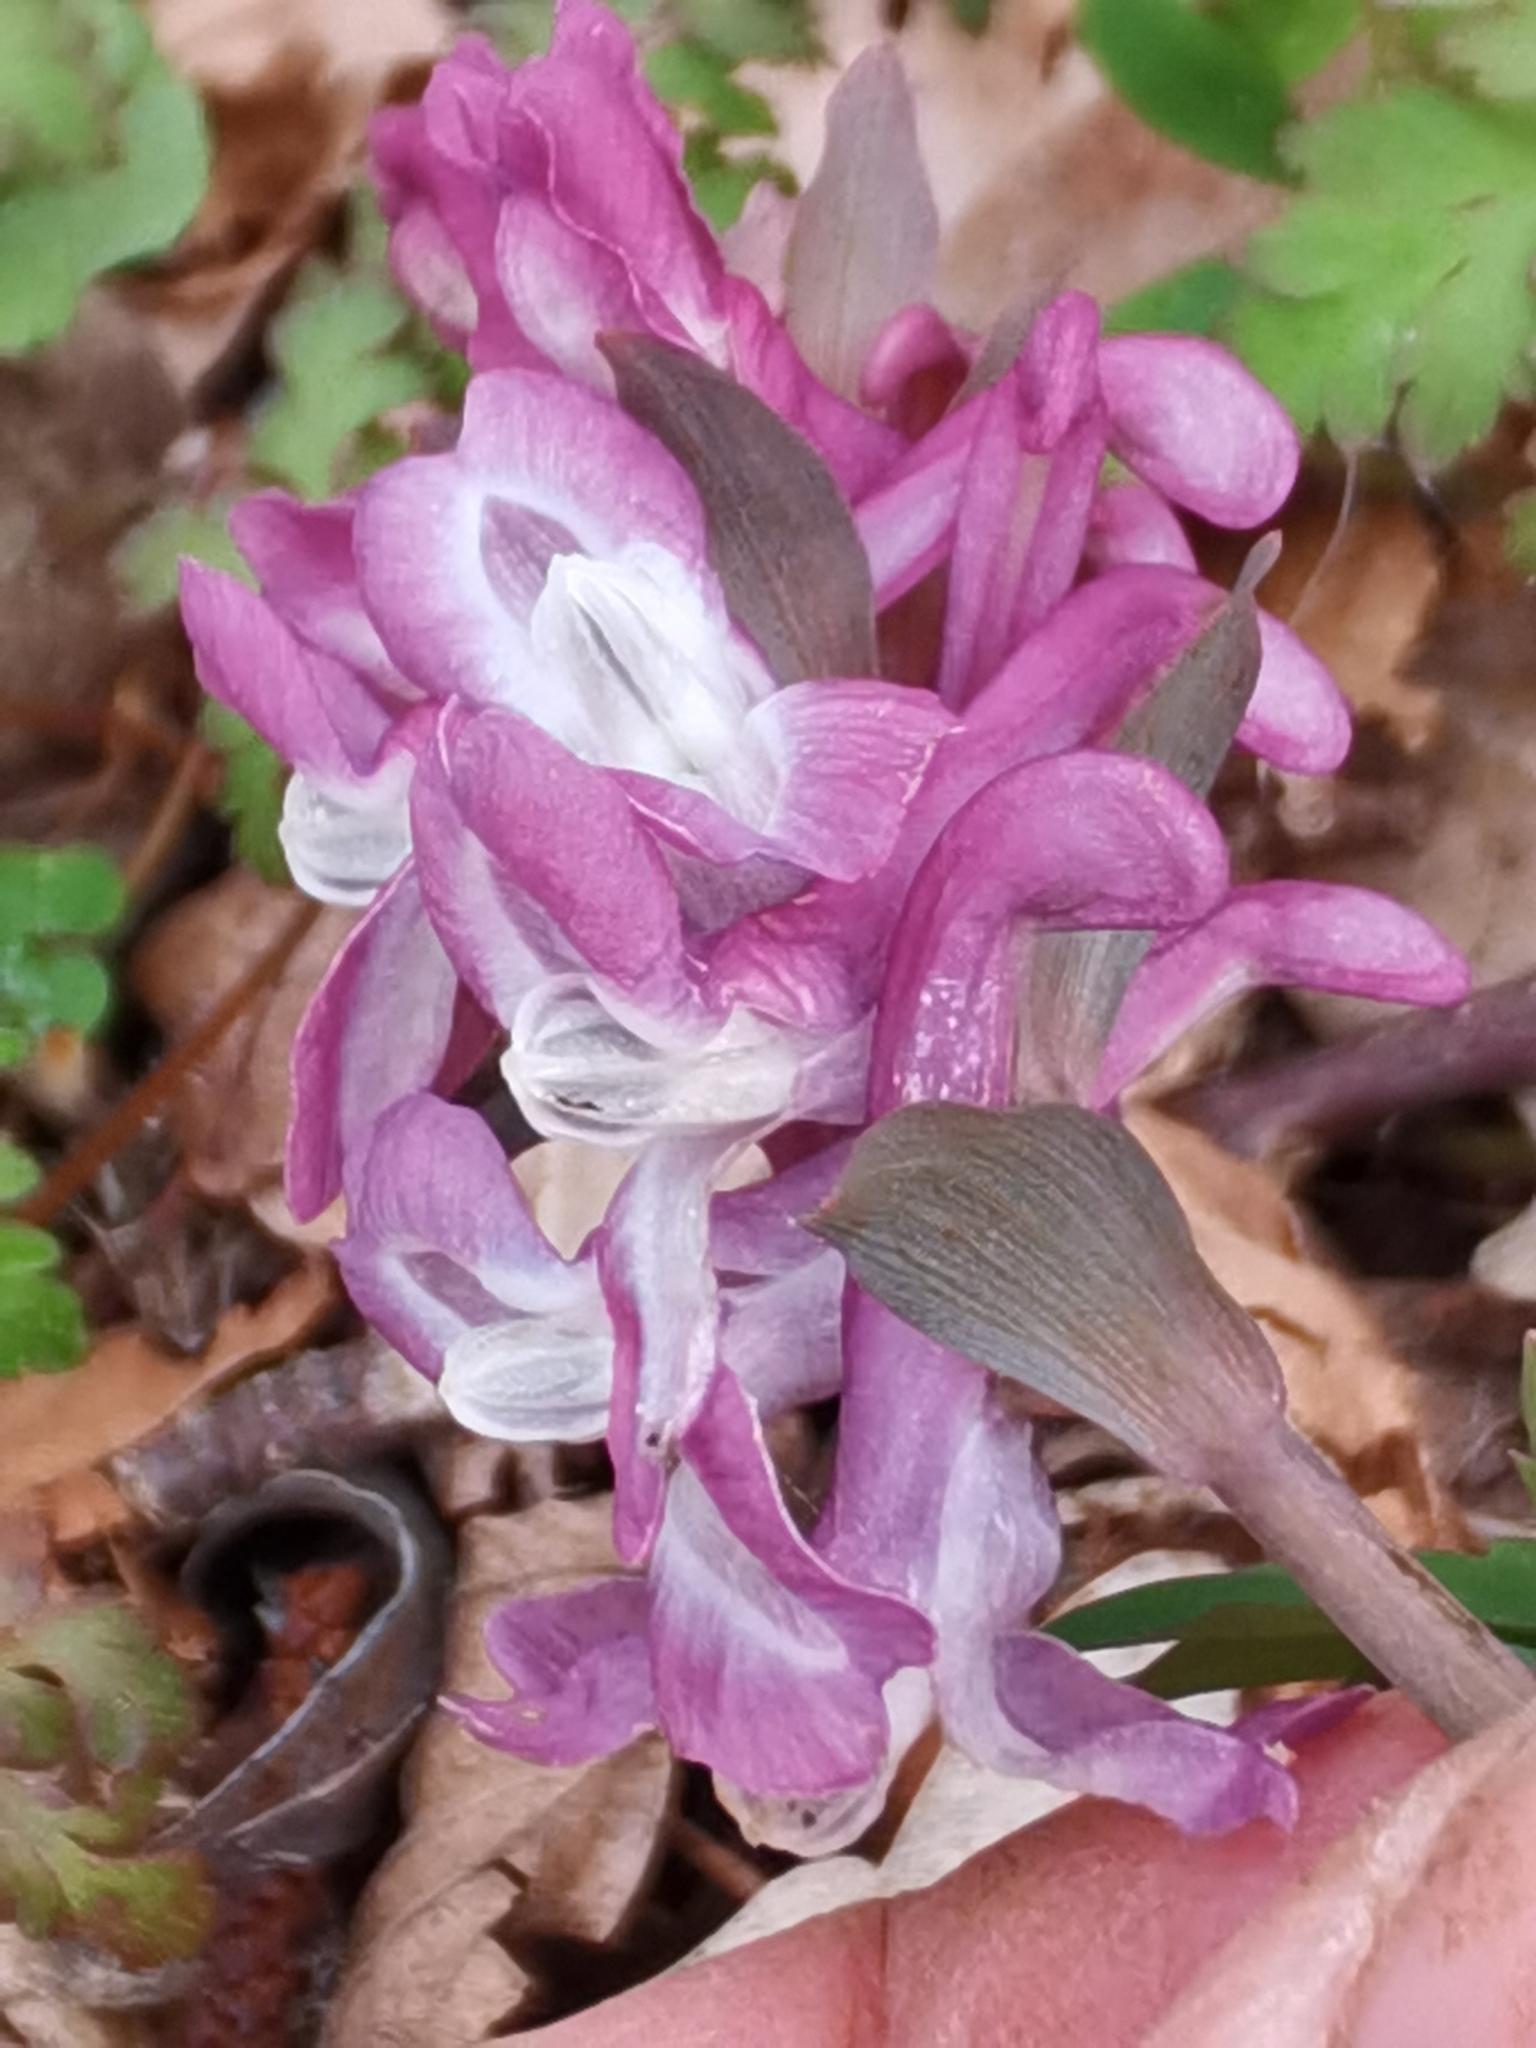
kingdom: Plantae
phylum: Tracheophyta
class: Magnoliopsida
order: Ranunculales
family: Papaveraceae
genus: Corydalis
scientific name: Corydalis cava
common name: Hollowroot
